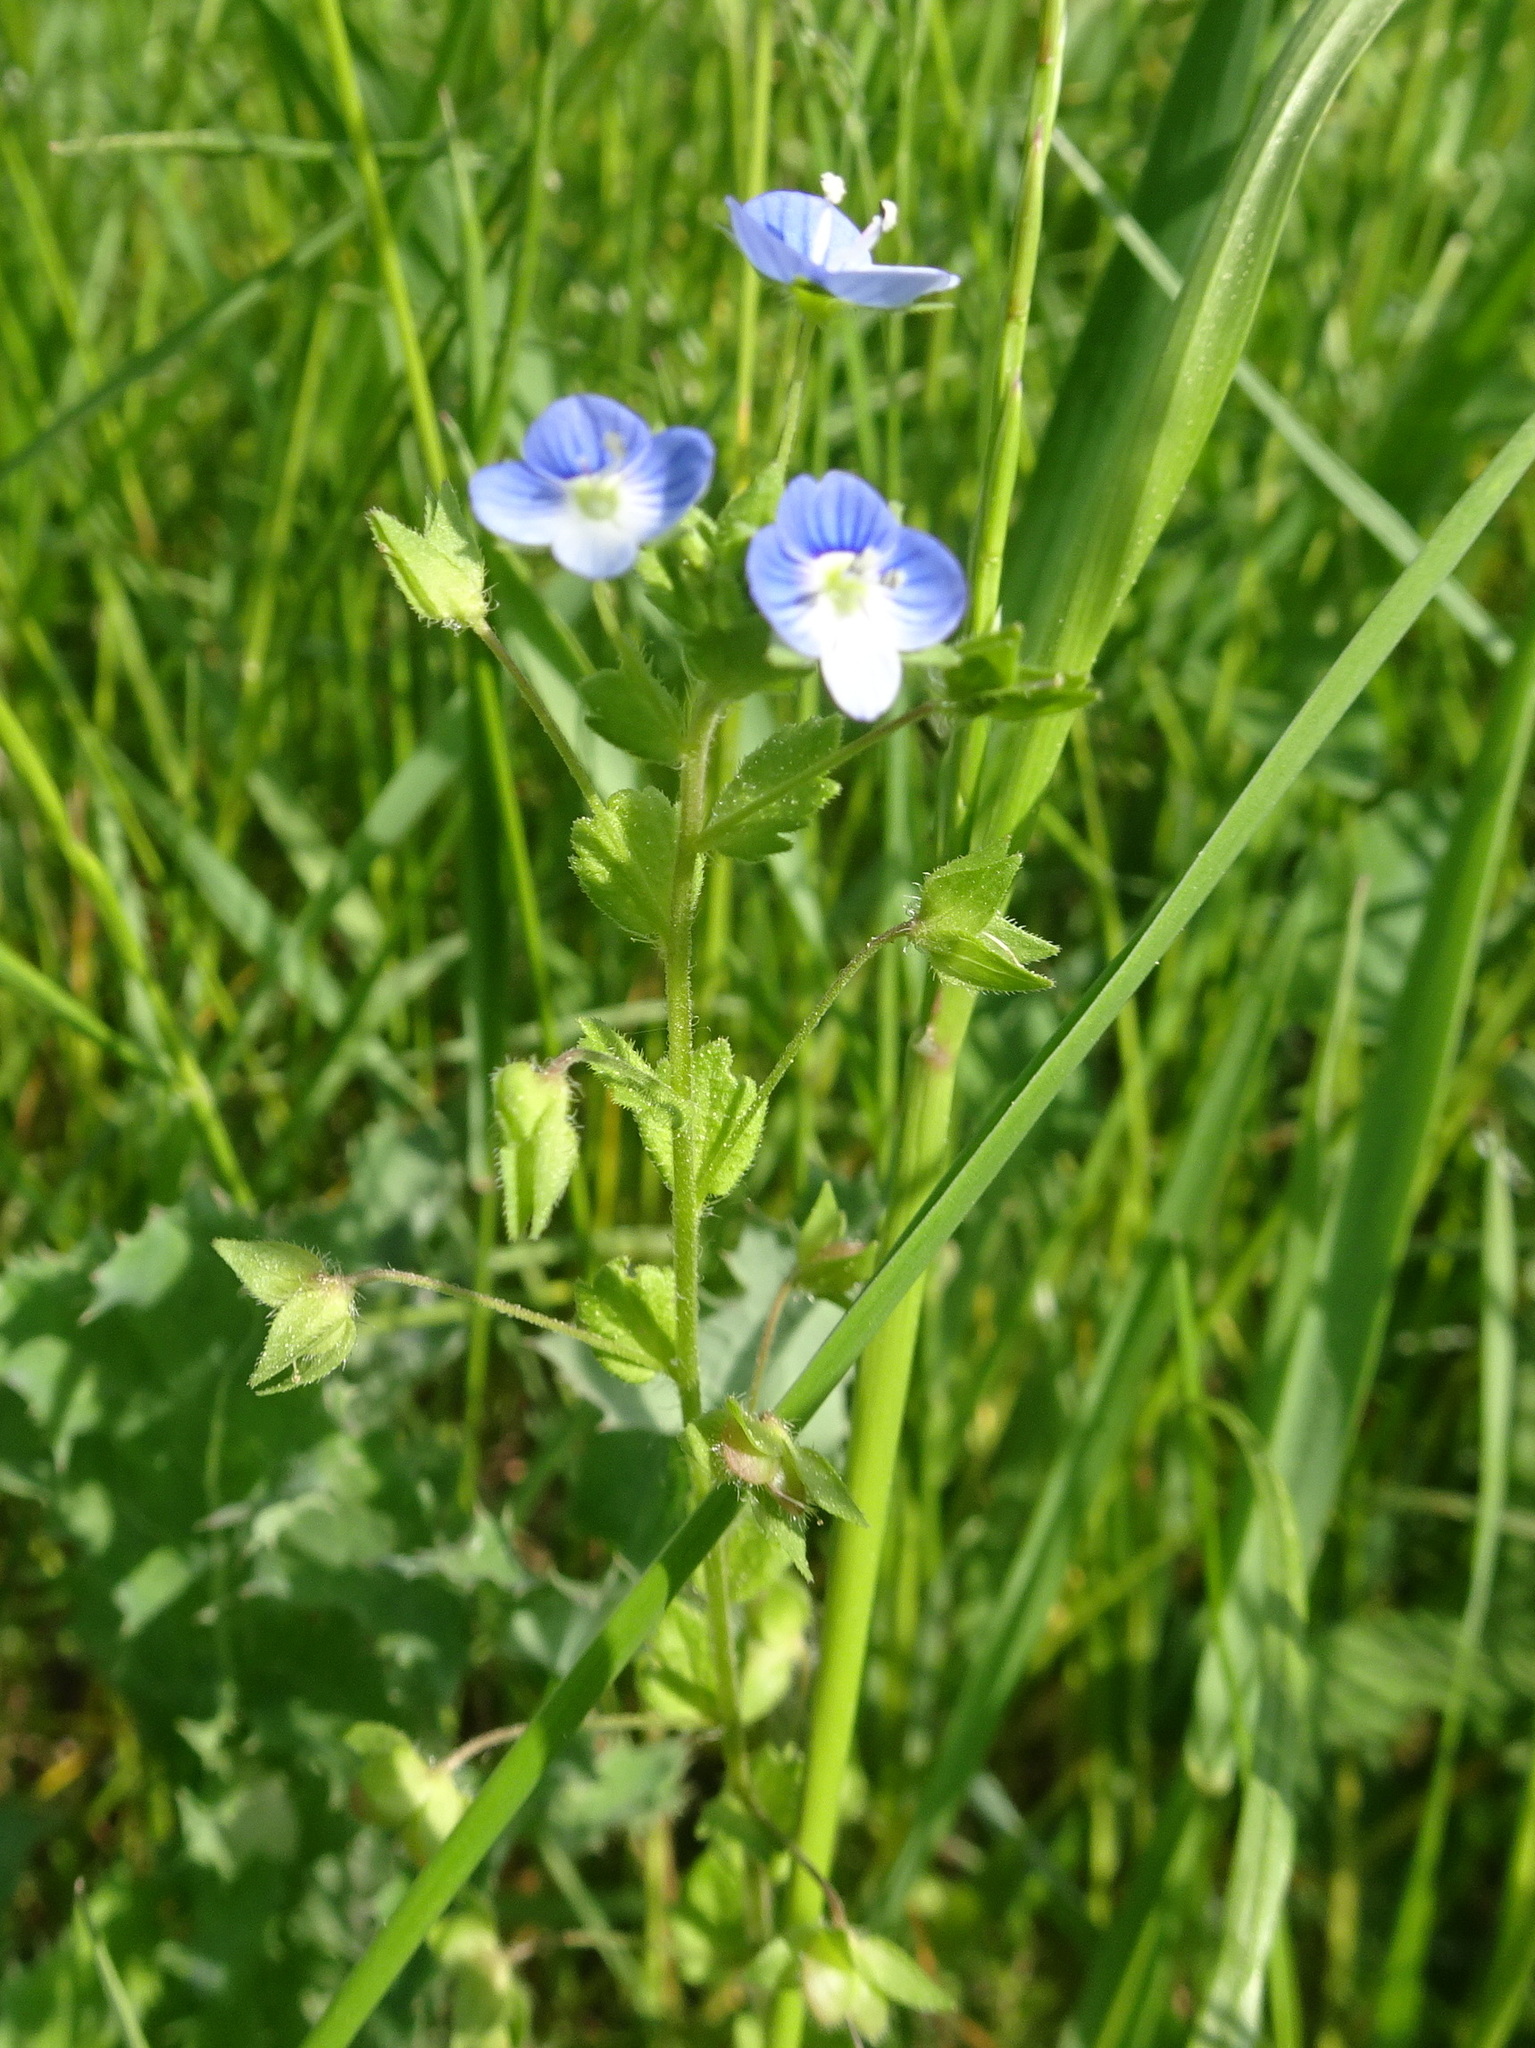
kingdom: Plantae
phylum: Tracheophyta
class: Magnoliopsida
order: Lamiales
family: Plantaginaceae
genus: Veronica
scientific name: Veronica persica
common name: Common field-speedwell
